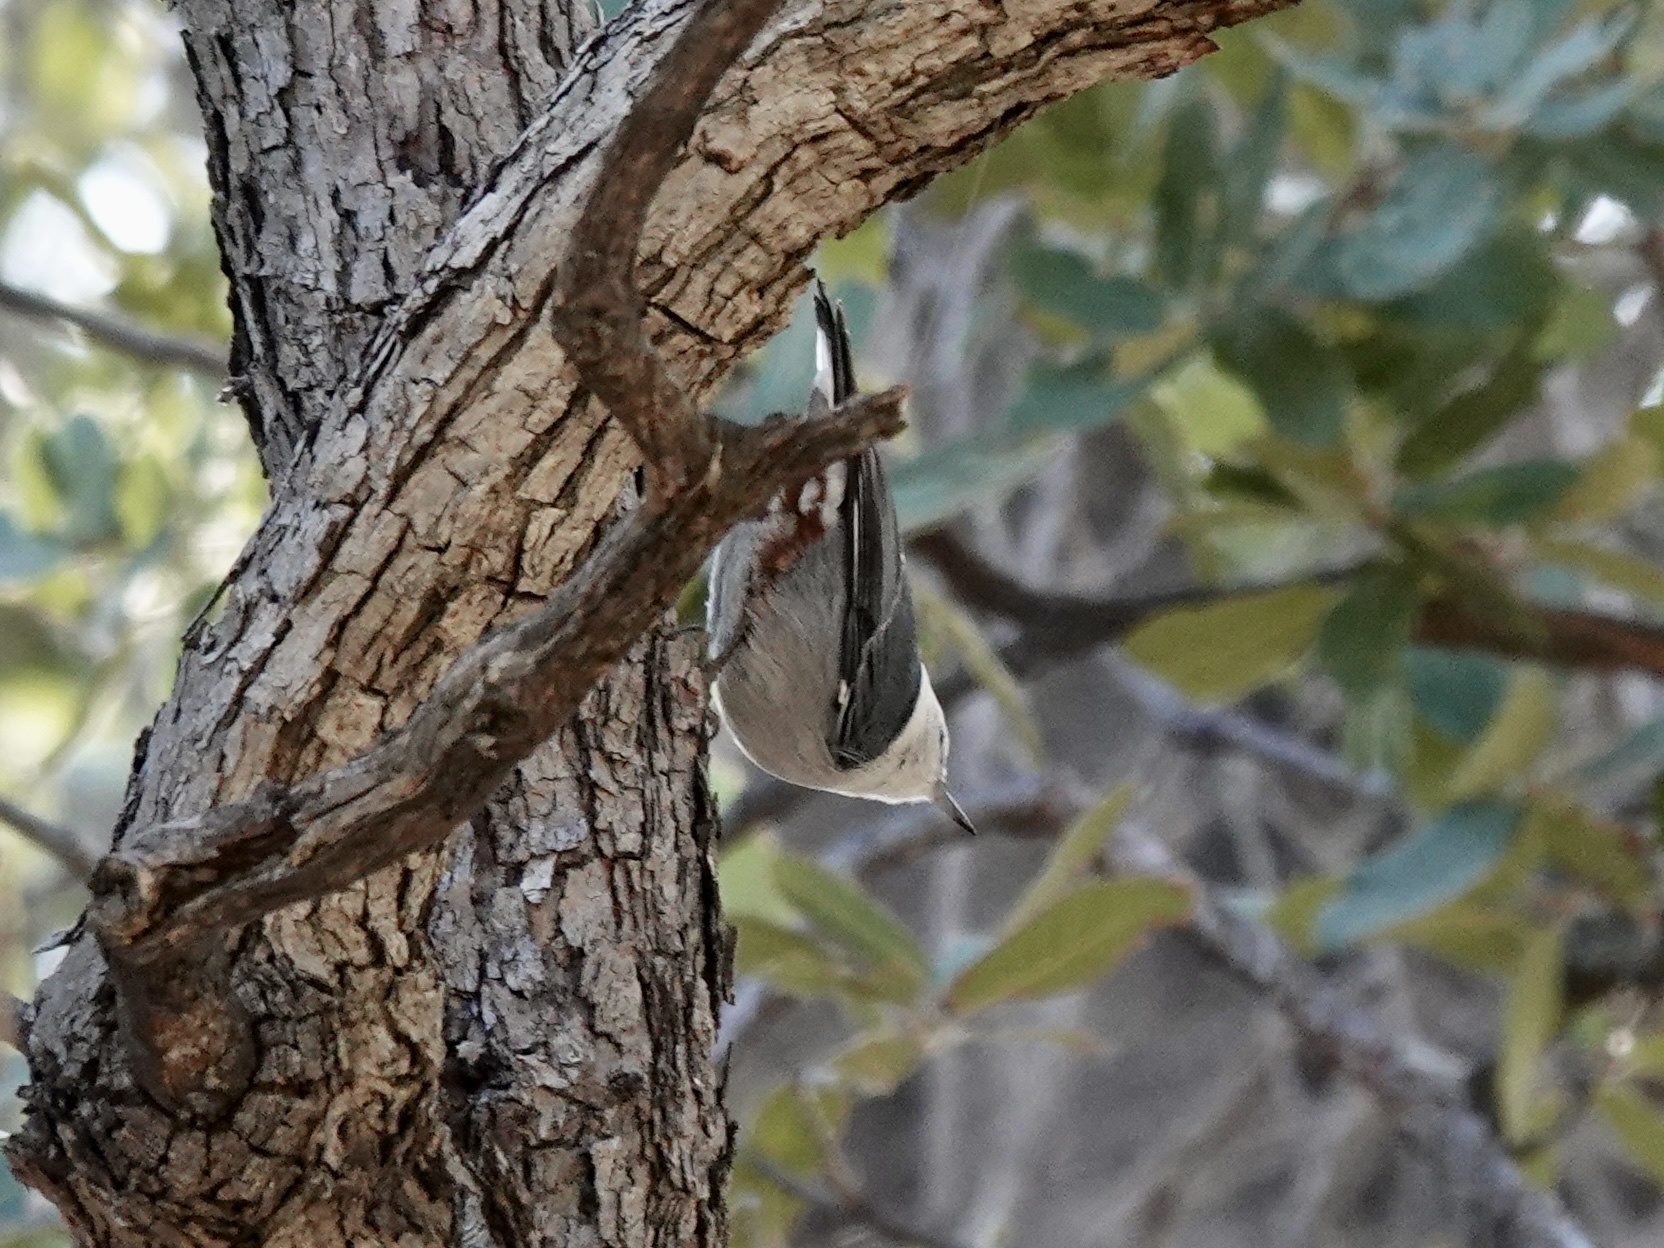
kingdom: Animalia
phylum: Chordata
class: Aves
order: Passeriformes
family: Sittidae
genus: Sitta
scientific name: Sitta carolinensis
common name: White-breasted nuthatch
